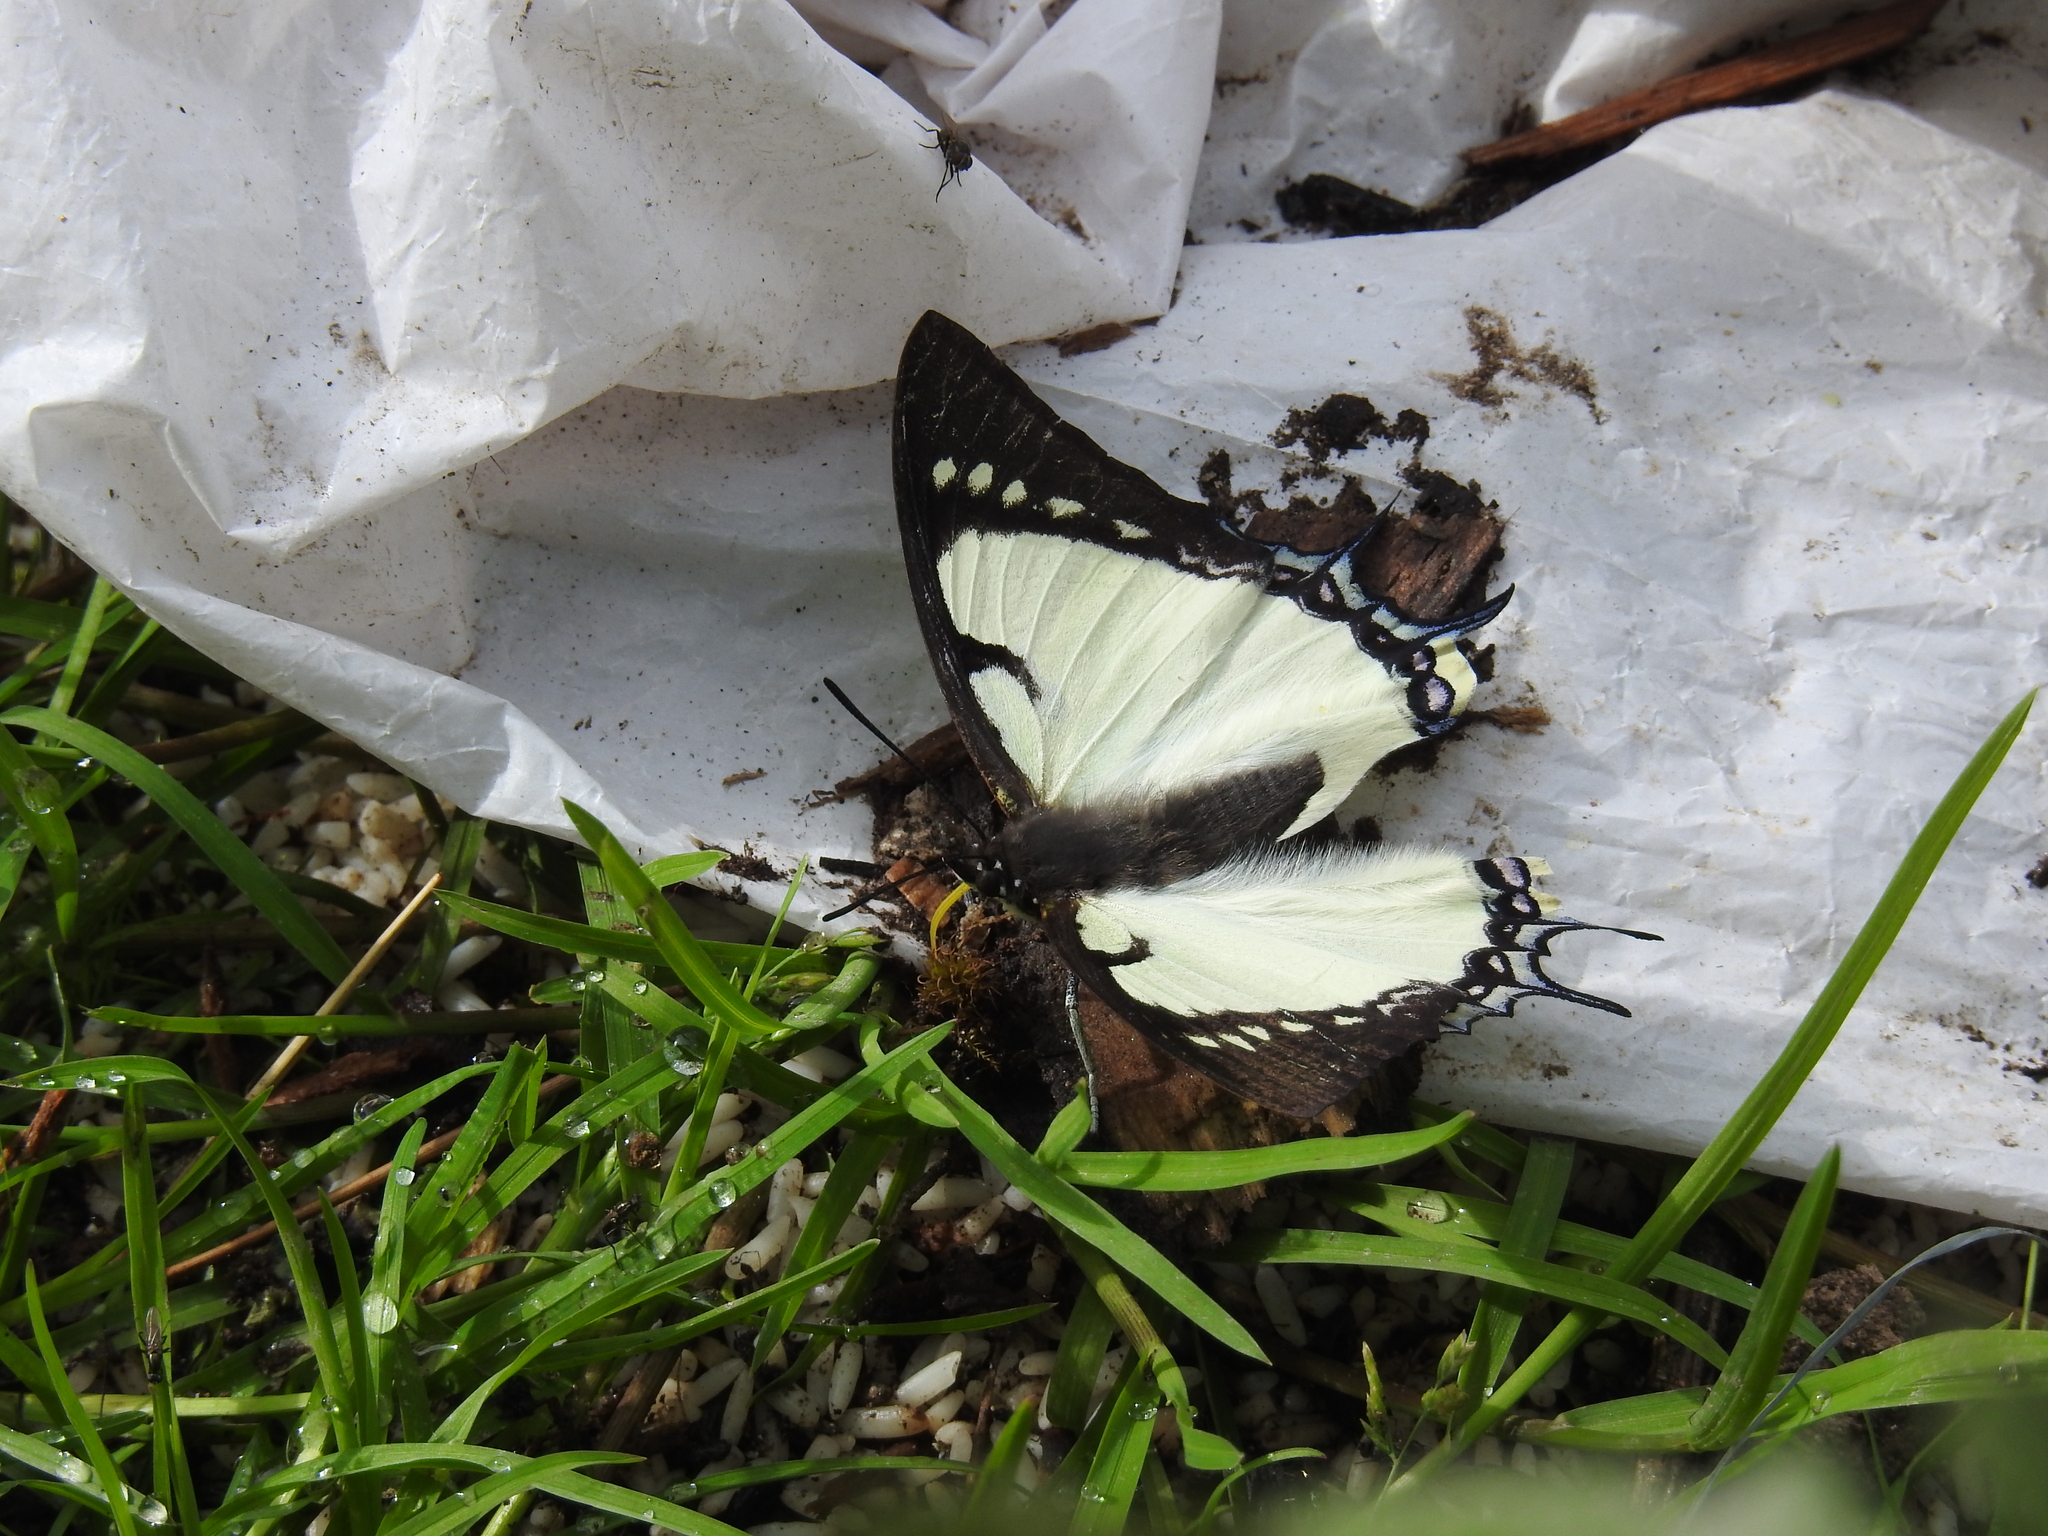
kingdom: Animalia
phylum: Arthropoda
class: Insecta
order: Lepidoptera
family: Nymphalidae
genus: Polyura
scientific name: Polyura dolon
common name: Stately nawab
